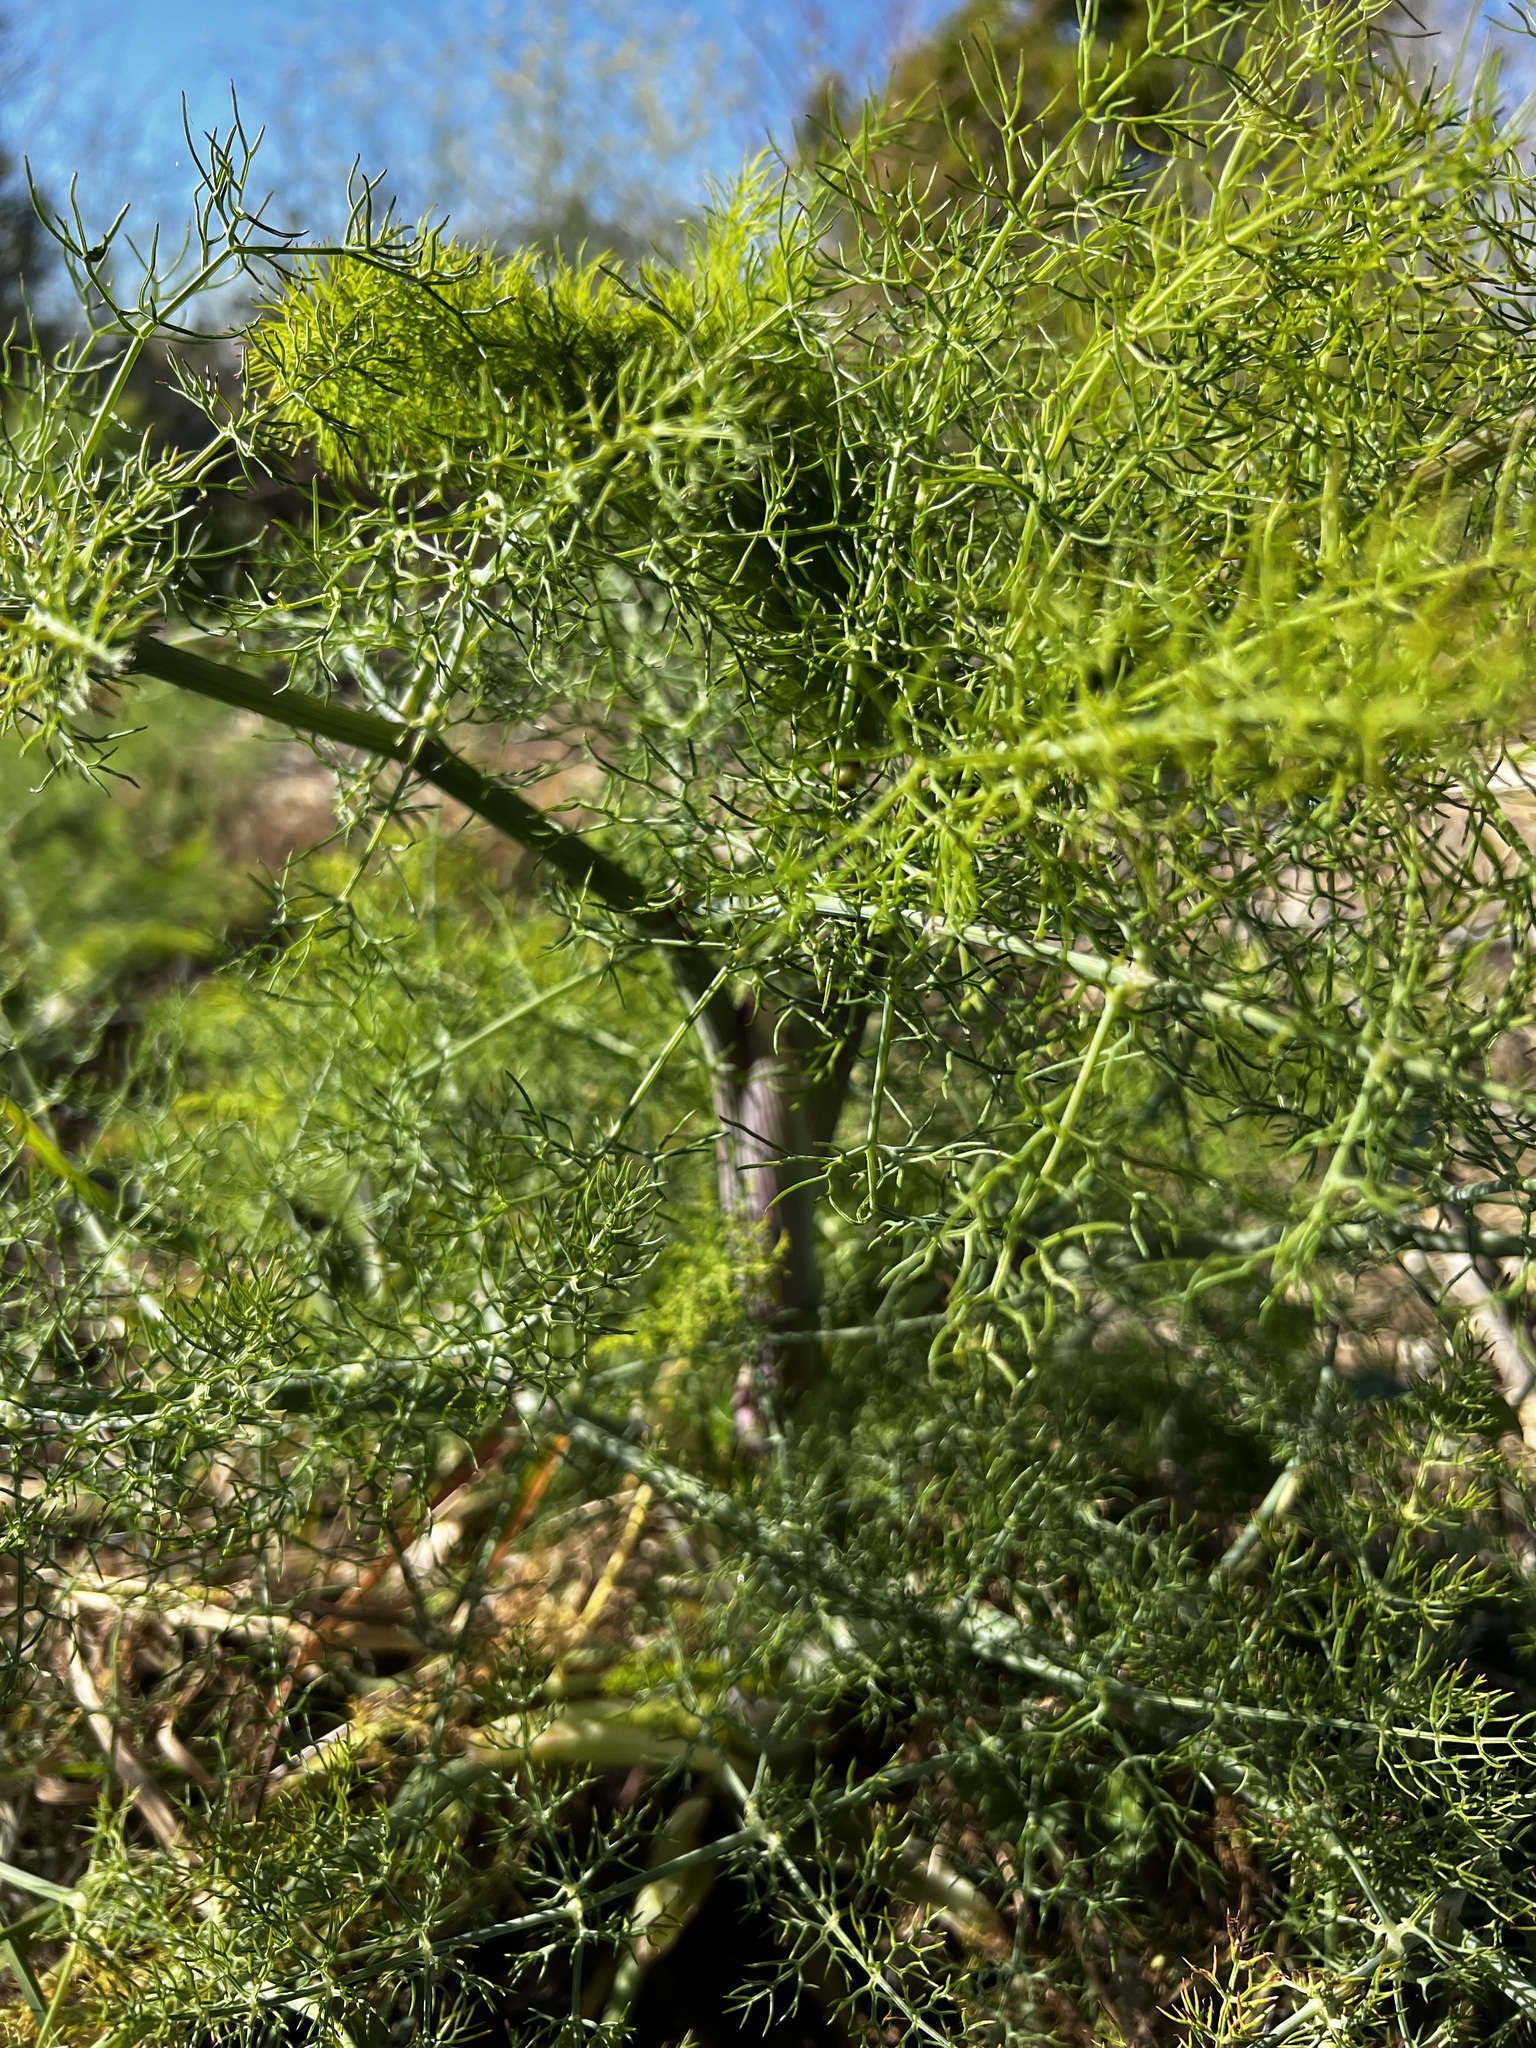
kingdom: Plantae
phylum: Tracheophyta
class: Magnoliopsida
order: Apiales
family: Apiaceae
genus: Foeniculum
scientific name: Foeniculum vulgare
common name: Fennel
